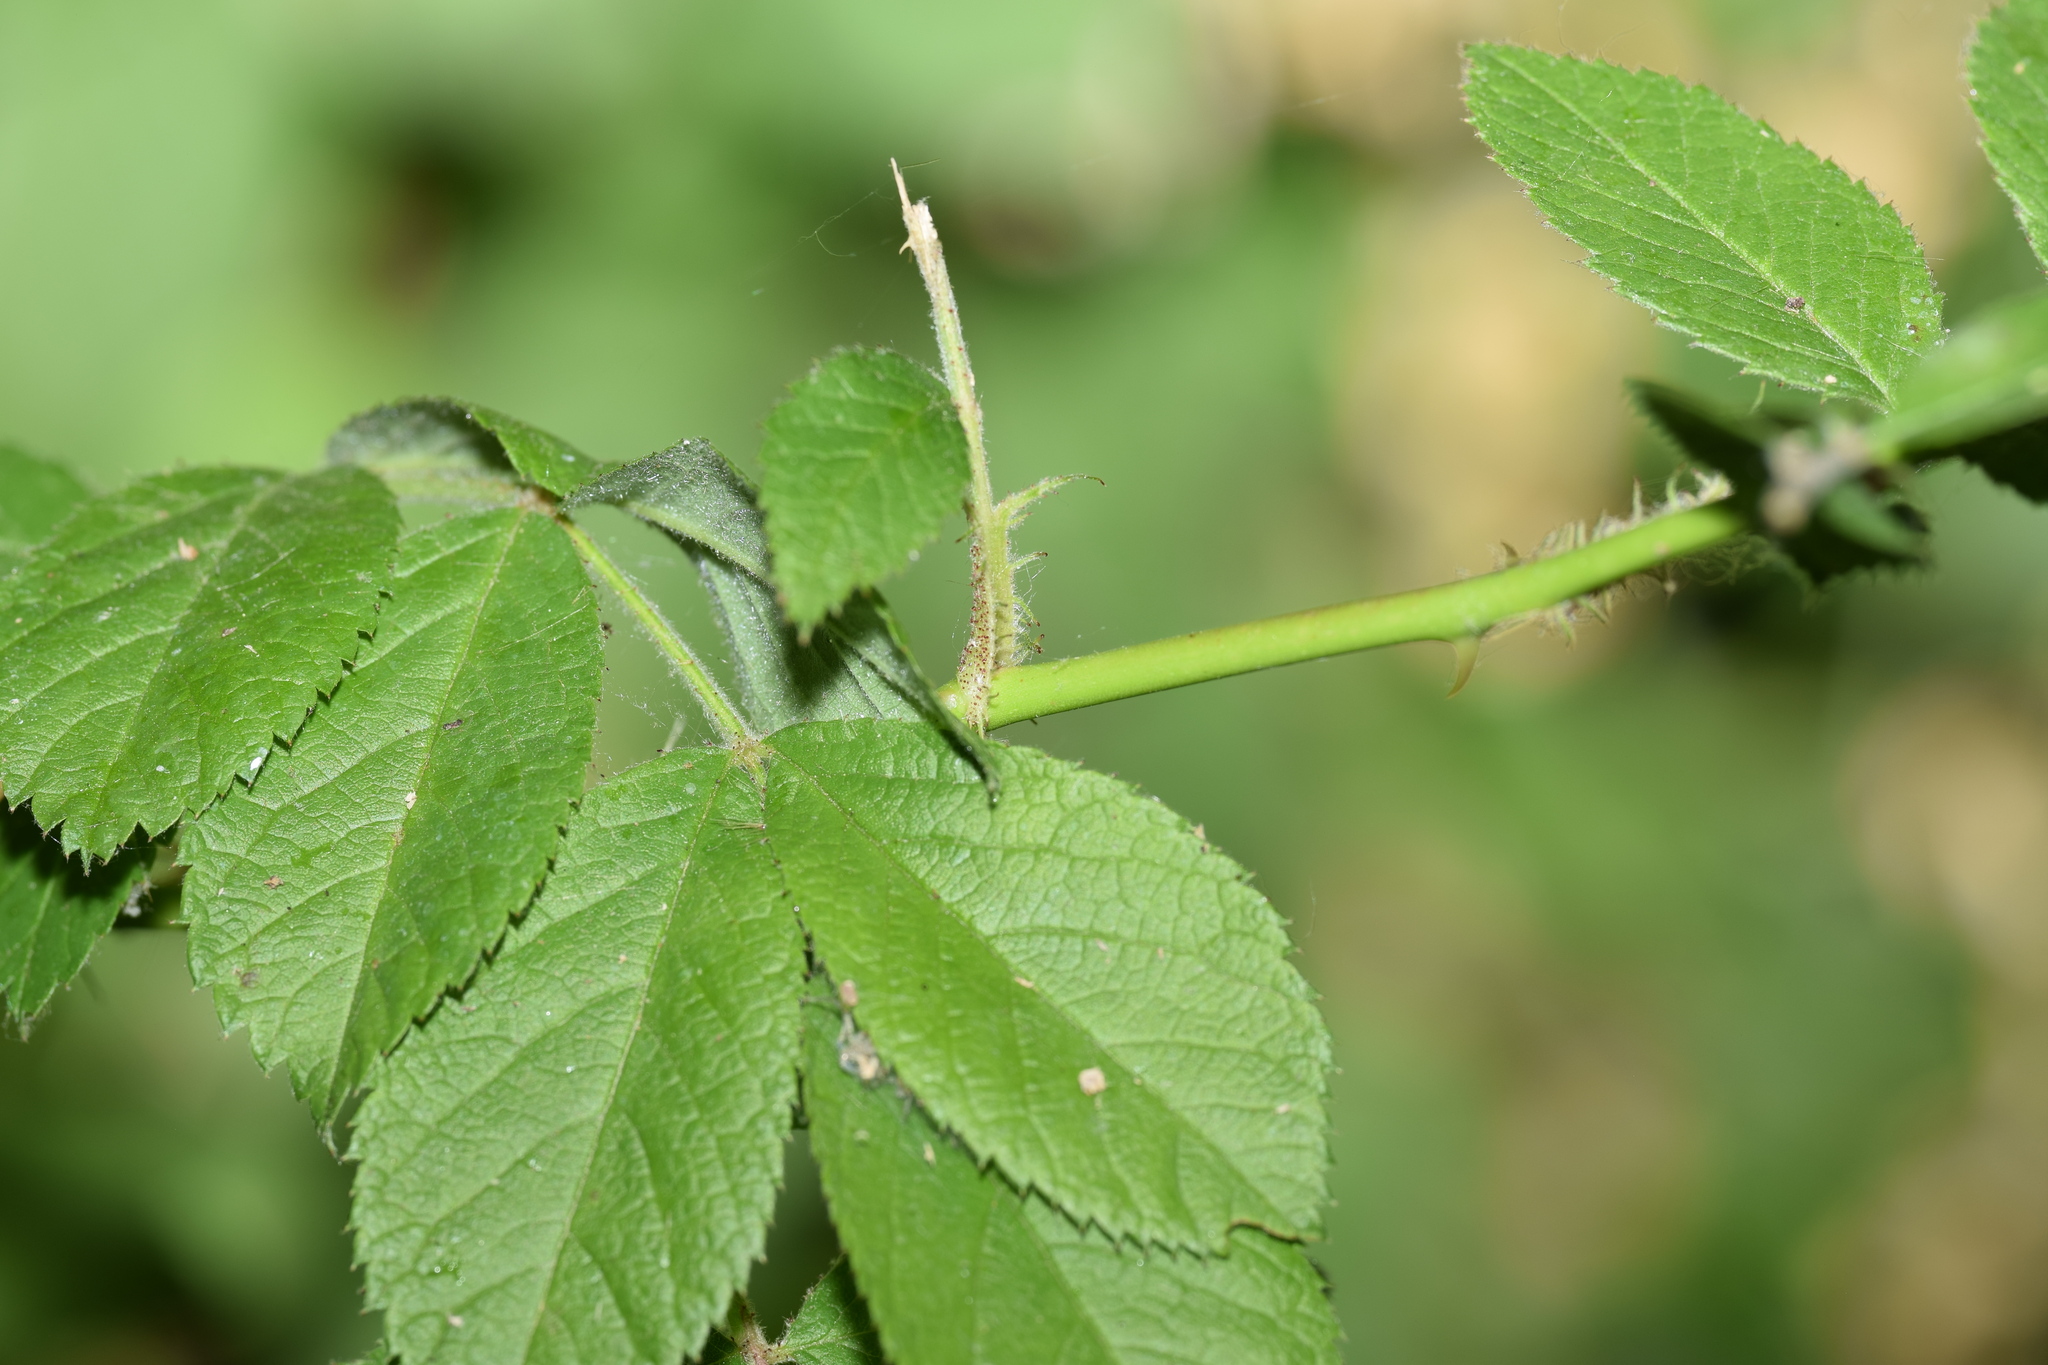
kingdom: Plantae
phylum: Tracheophyta
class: Magnoliopsida
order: Rosales
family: Rosaceae
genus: Rosa
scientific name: Rosa multiflora
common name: Multiflora rose
